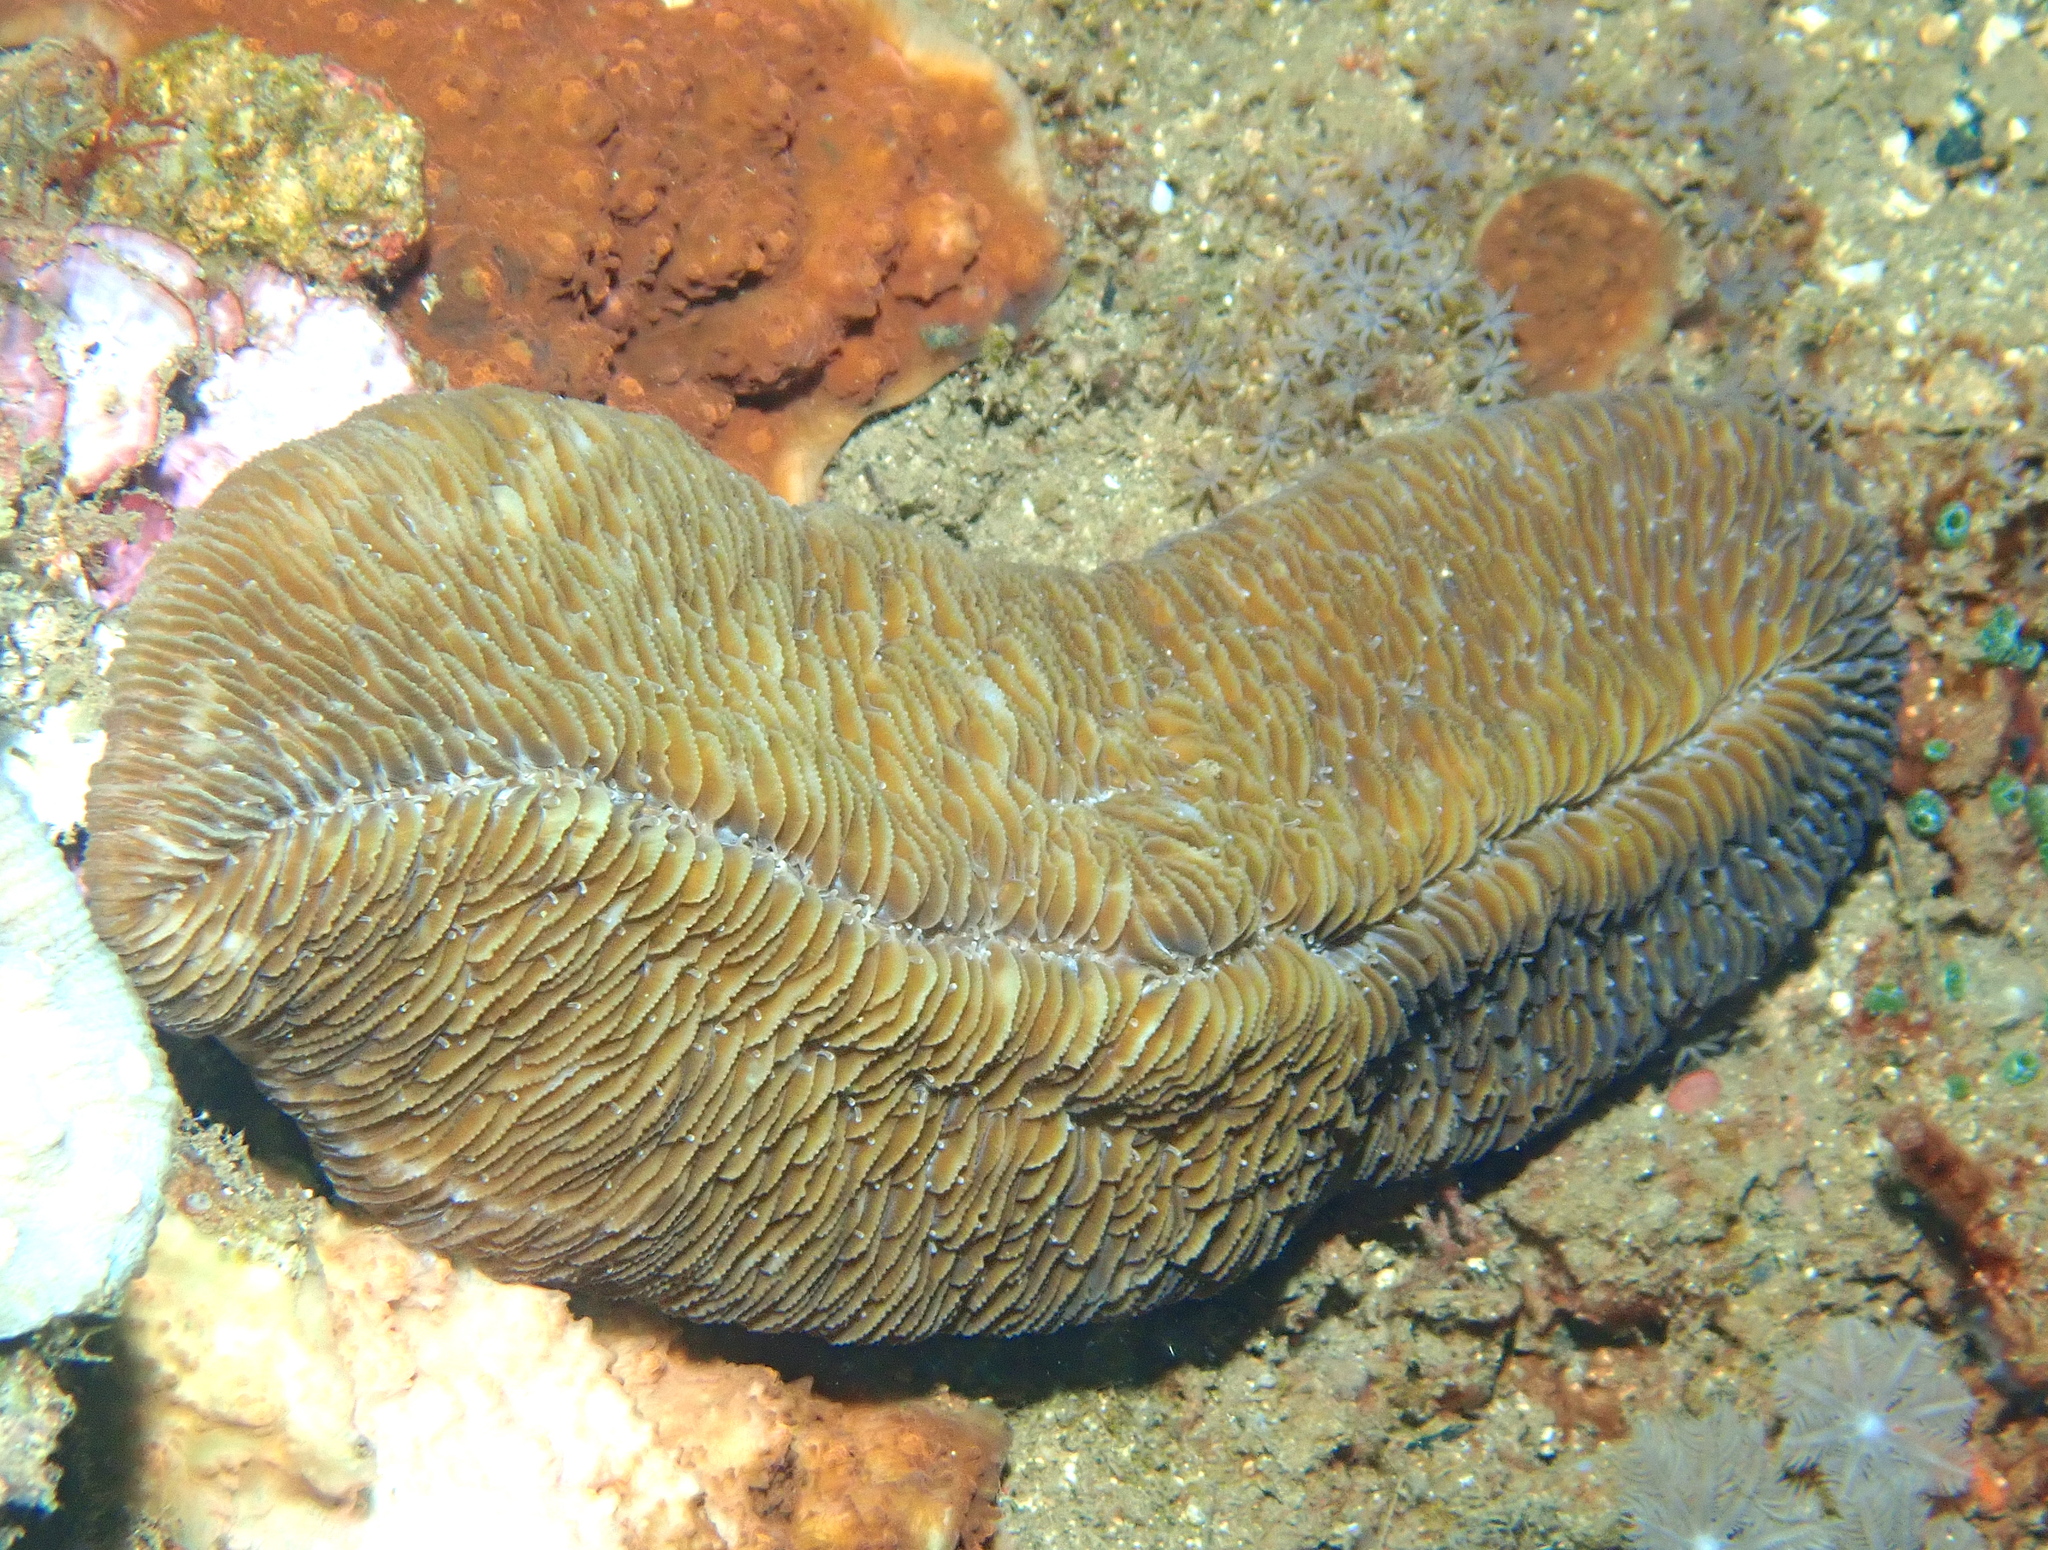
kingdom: Animalia
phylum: Cnidaria
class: Anthozoa
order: Scleractinia
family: Fungiidae
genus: Herpolitha
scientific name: Herpolitha limax
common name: Striate boomerang coral
